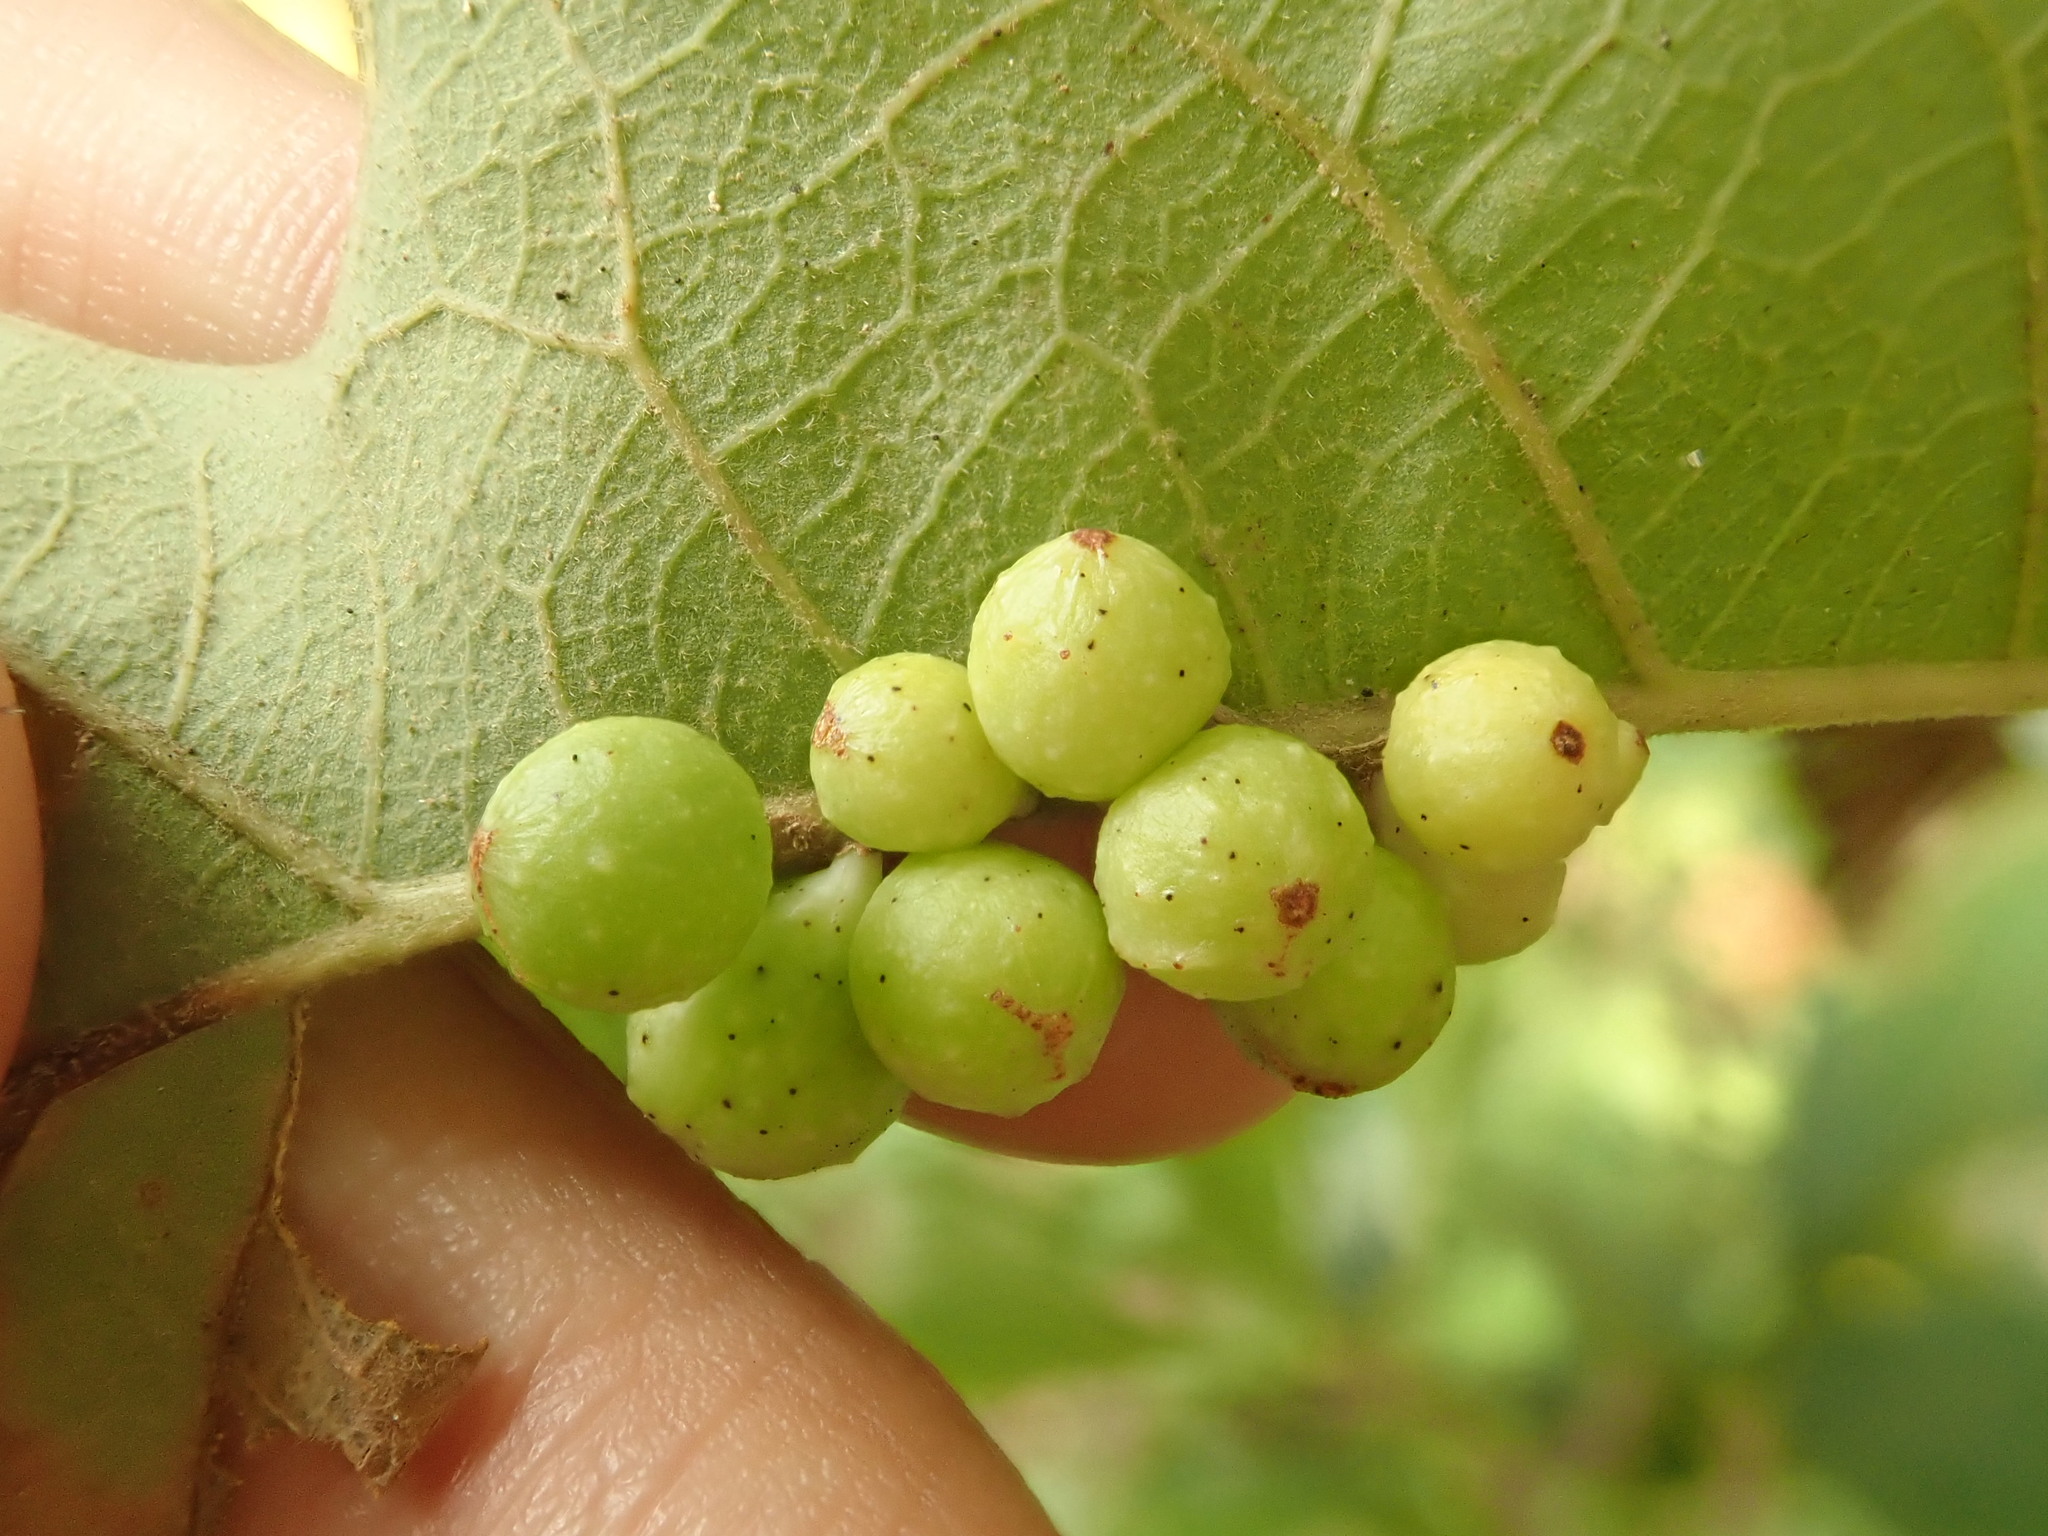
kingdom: Animalia
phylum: Arthropoda
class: Insecta
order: Hymenoptera
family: Cynipidae
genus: Andricus
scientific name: Andricus
